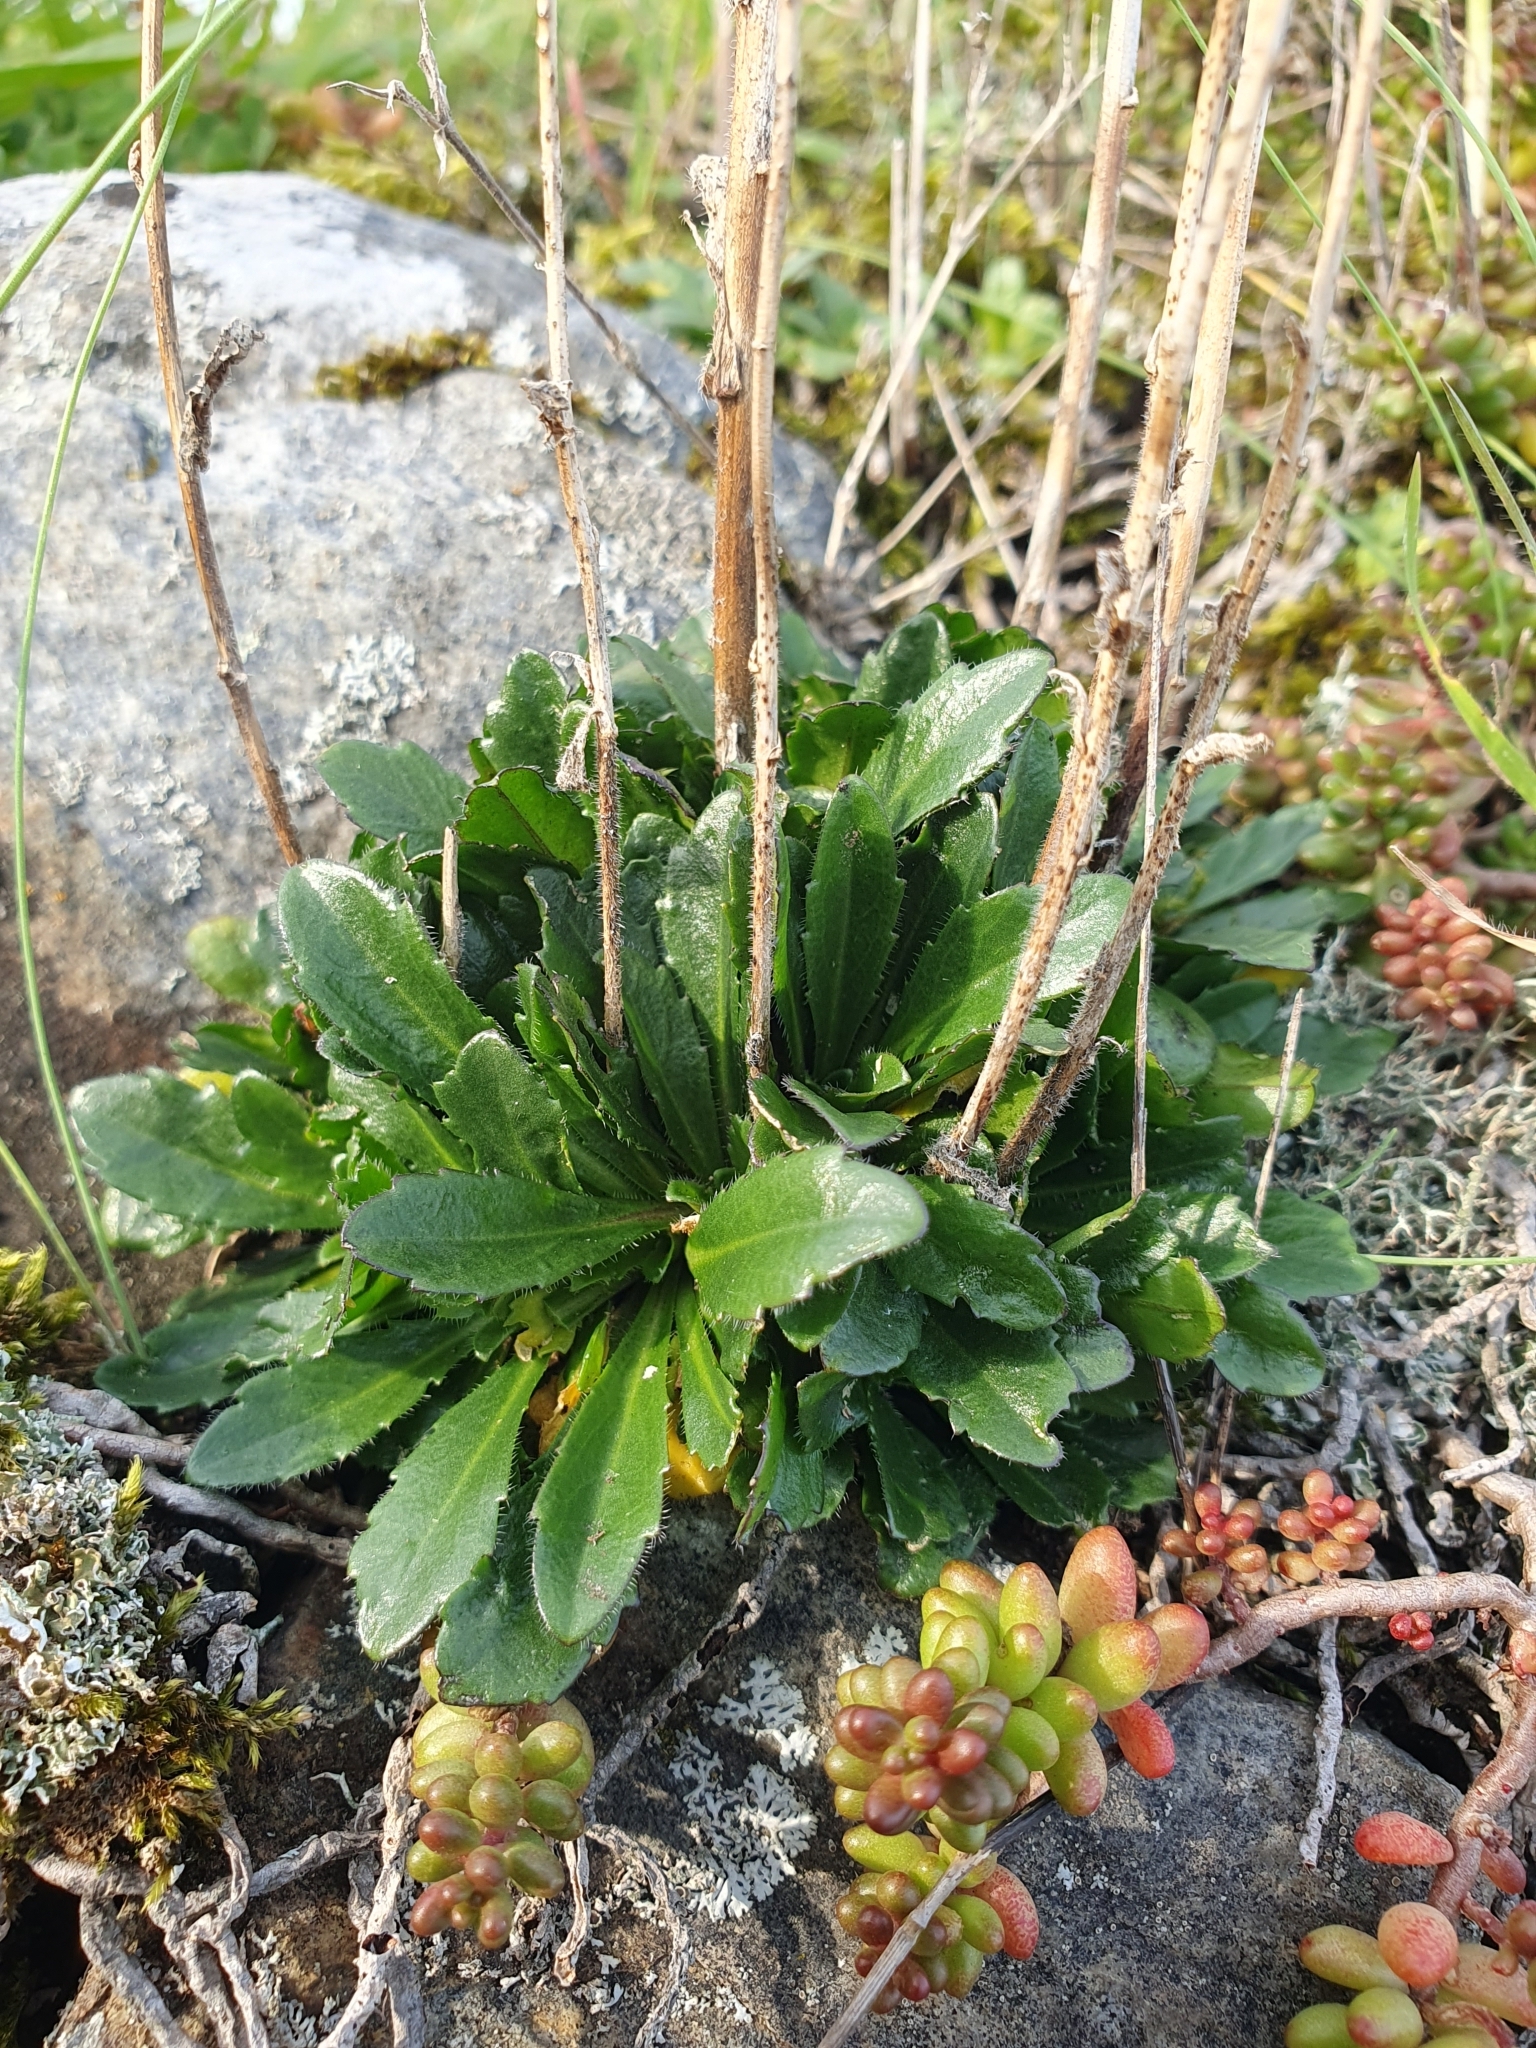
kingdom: Plantae
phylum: Tracheophyta
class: Magnoliopsida
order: Brassicales
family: Brassicaceae
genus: Arabis
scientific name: Arabis hirsuta
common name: Hairy rock-cress
